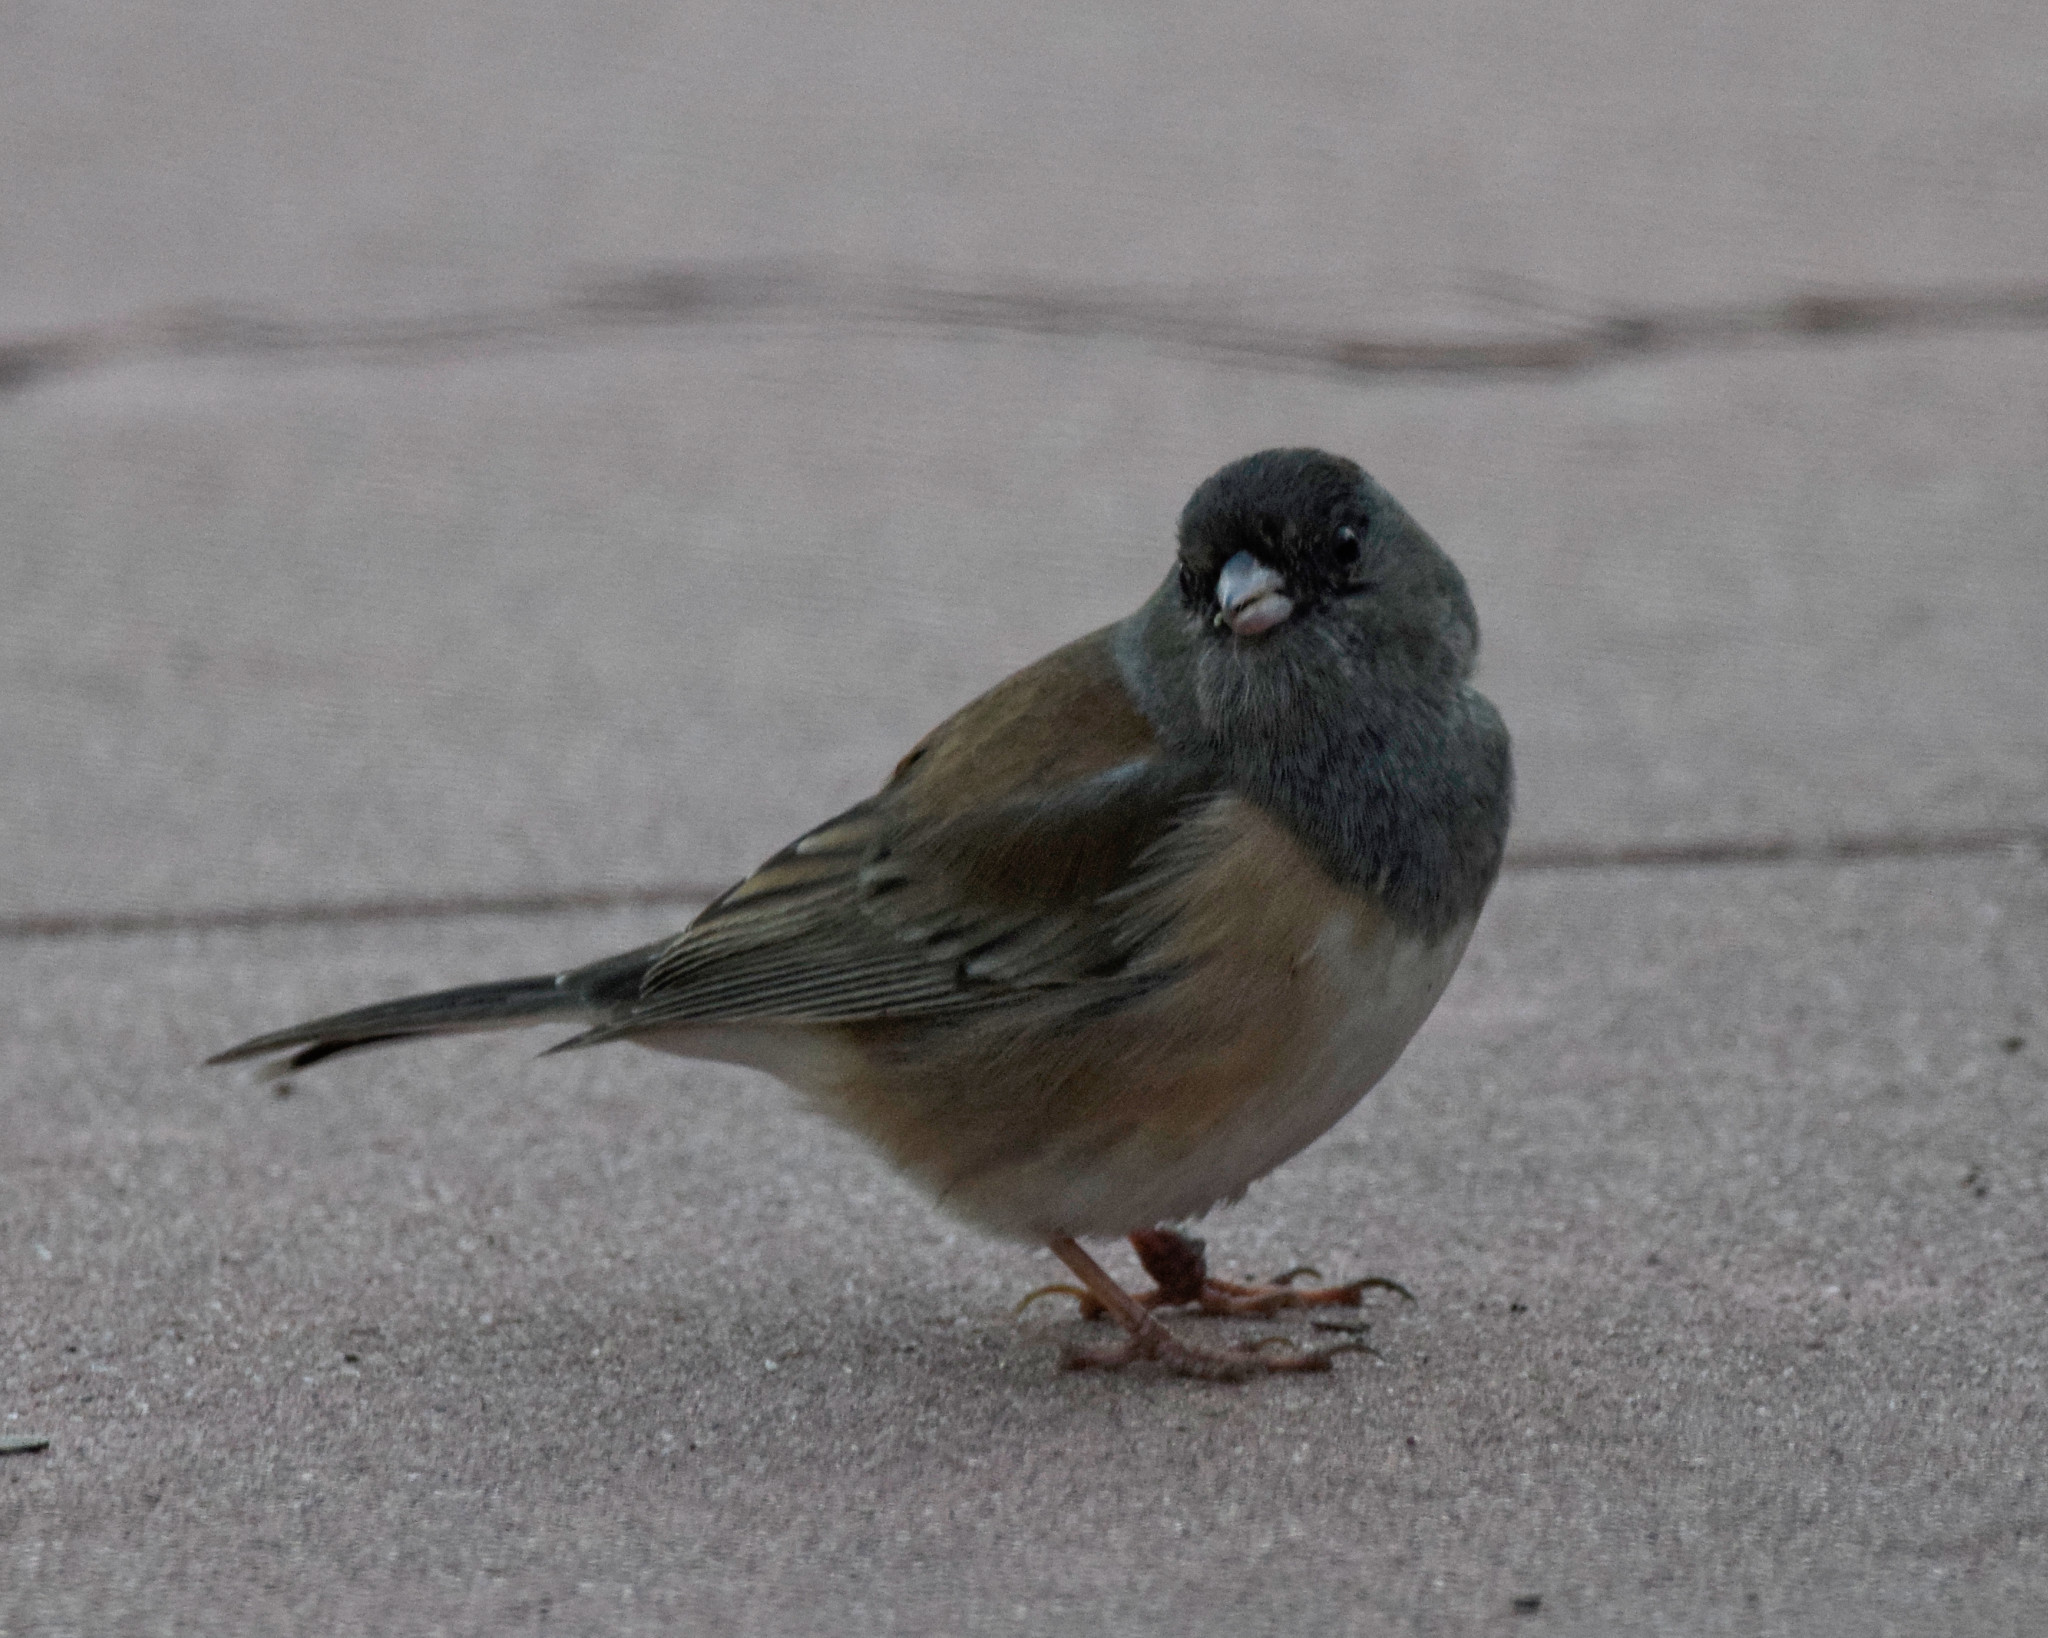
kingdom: Animalia
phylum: Chordata
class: Aves
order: Passeriformes
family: Passerellidae
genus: Junco
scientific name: Junco hyemalis
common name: Dark-eyed junco
